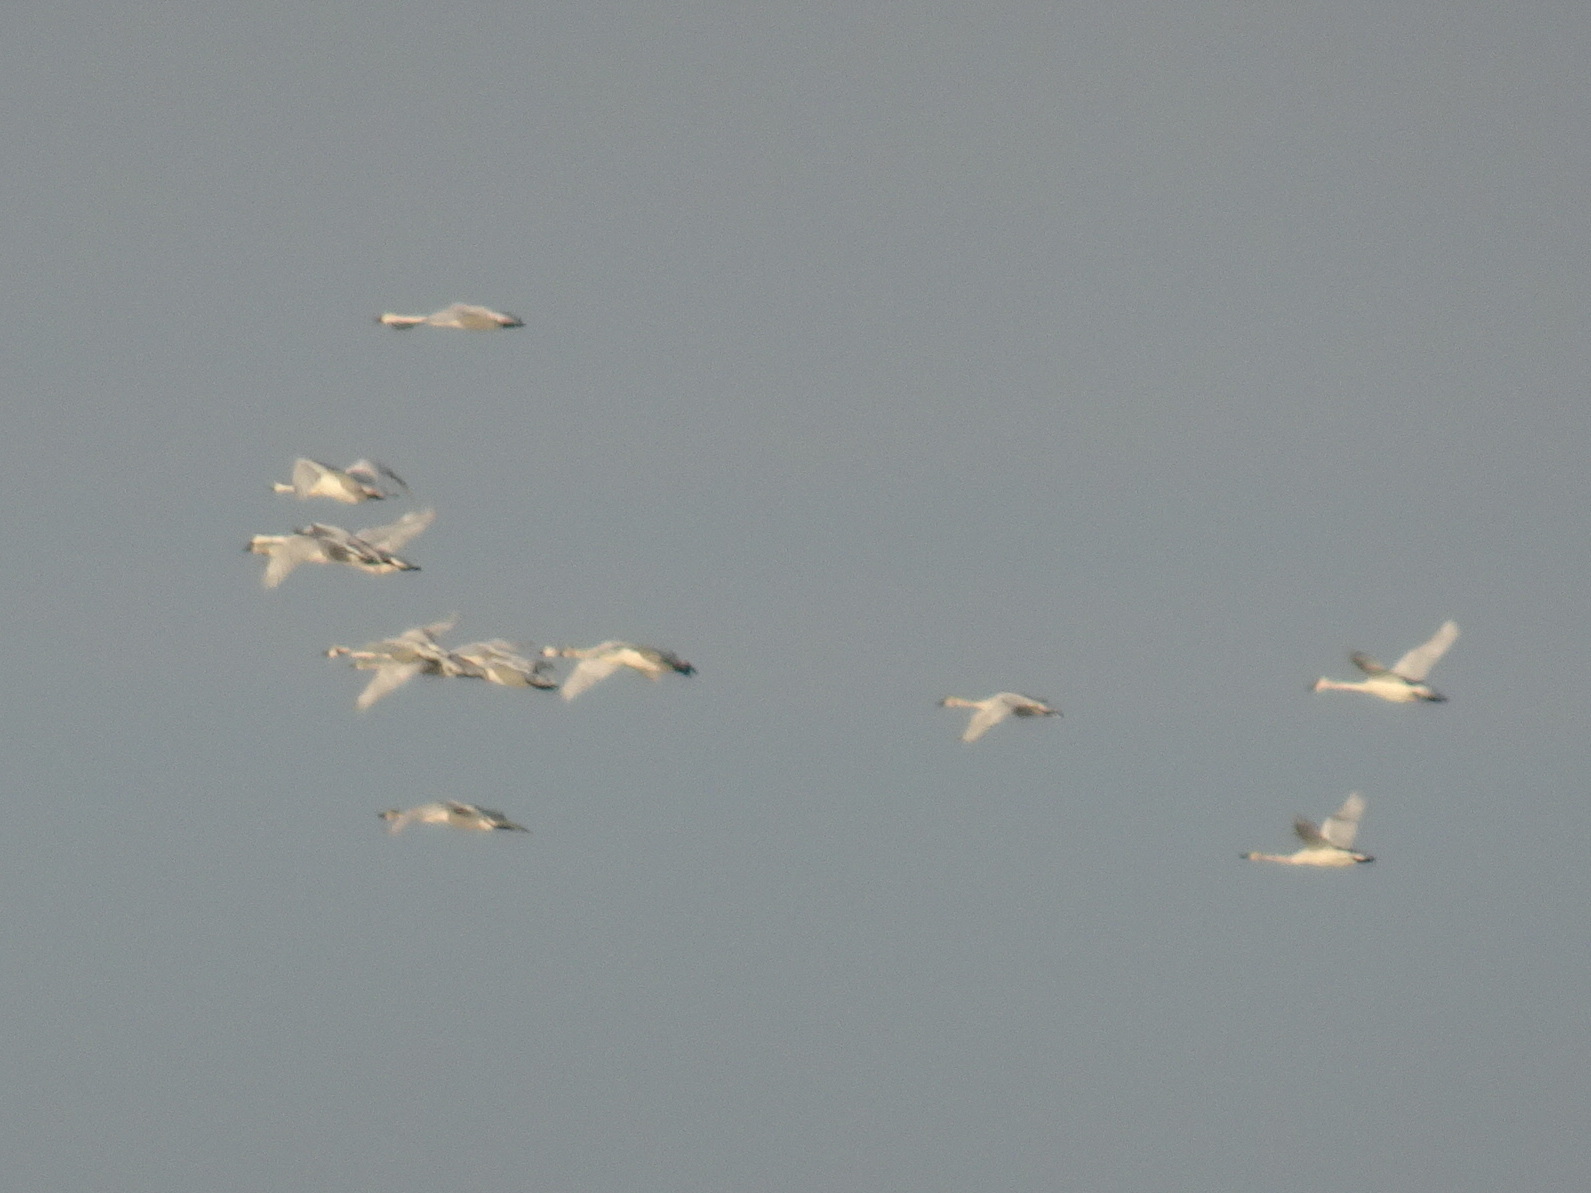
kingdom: Animalia
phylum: Chordata
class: Aves
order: Anseriformes
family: Anatidae
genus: Cygnus
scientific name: Cygnus buccinator
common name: Trumpeter swan
